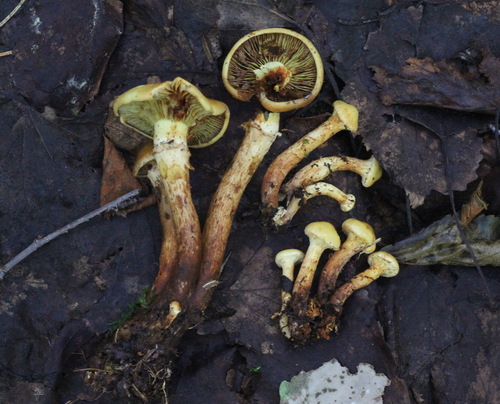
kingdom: Fungi
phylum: Basidiomycota
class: Agaricomycetes
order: Agaricales
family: Hymenogastraceae
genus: Flammula
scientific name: Flammula alnicola
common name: Alder scalycap
